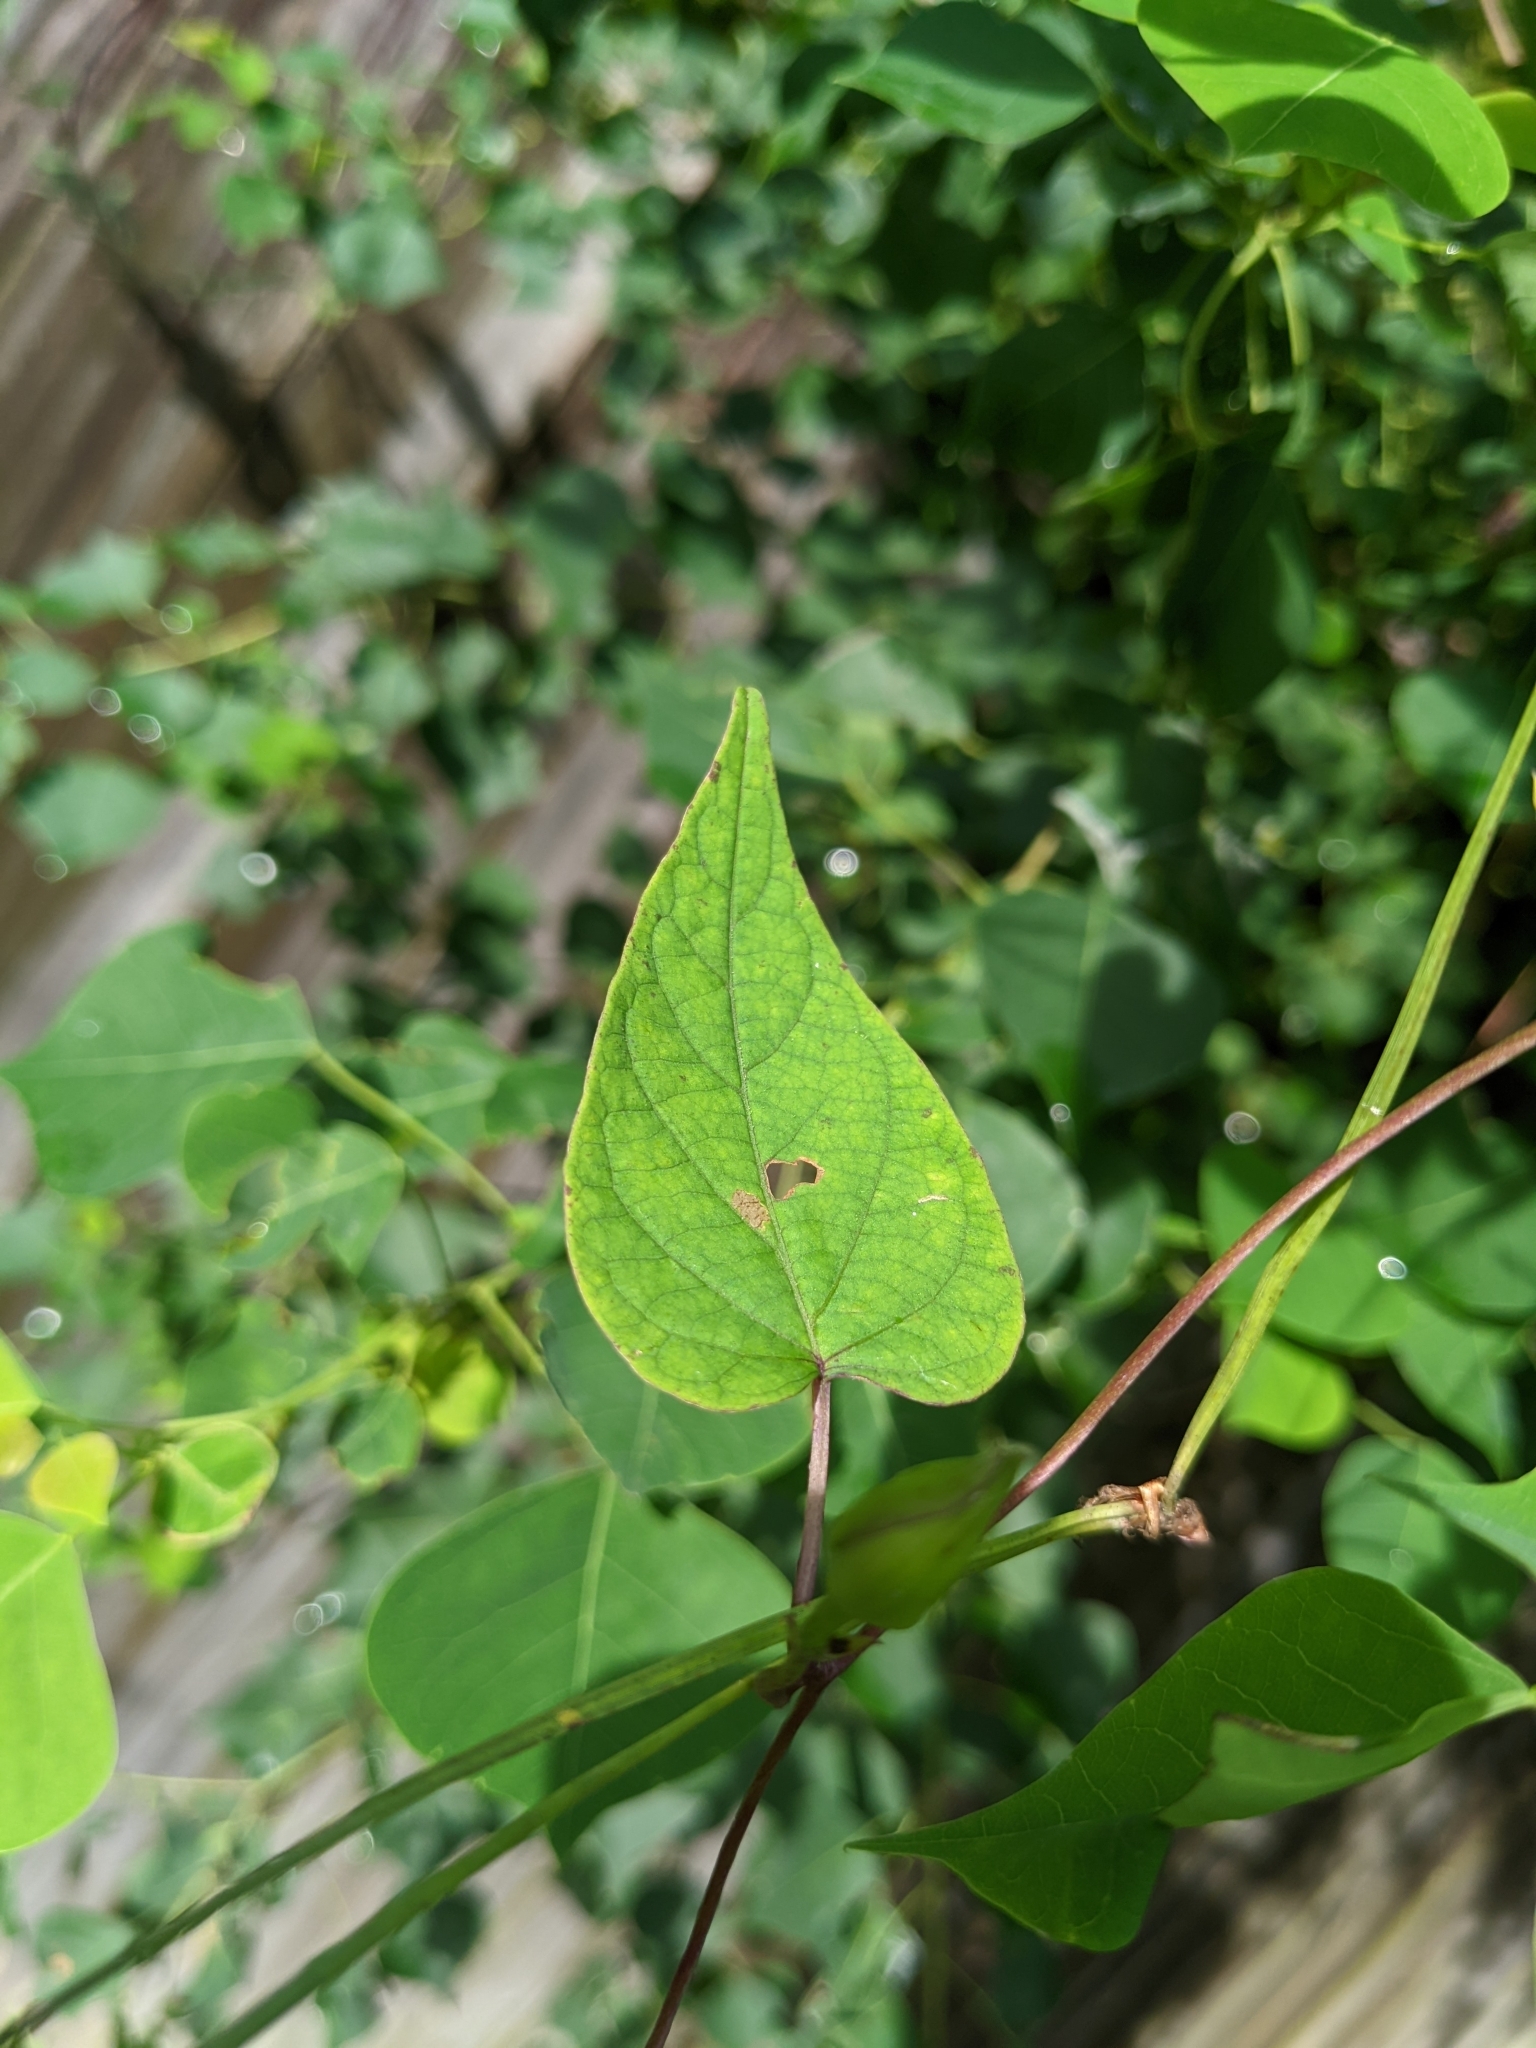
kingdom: Plantae
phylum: Tracheophyta
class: Magnoliopsida
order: Solanales
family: Convolvulaceae
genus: Ipomoea
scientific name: Ipomoea pandurata
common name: Man-of-the-earth
